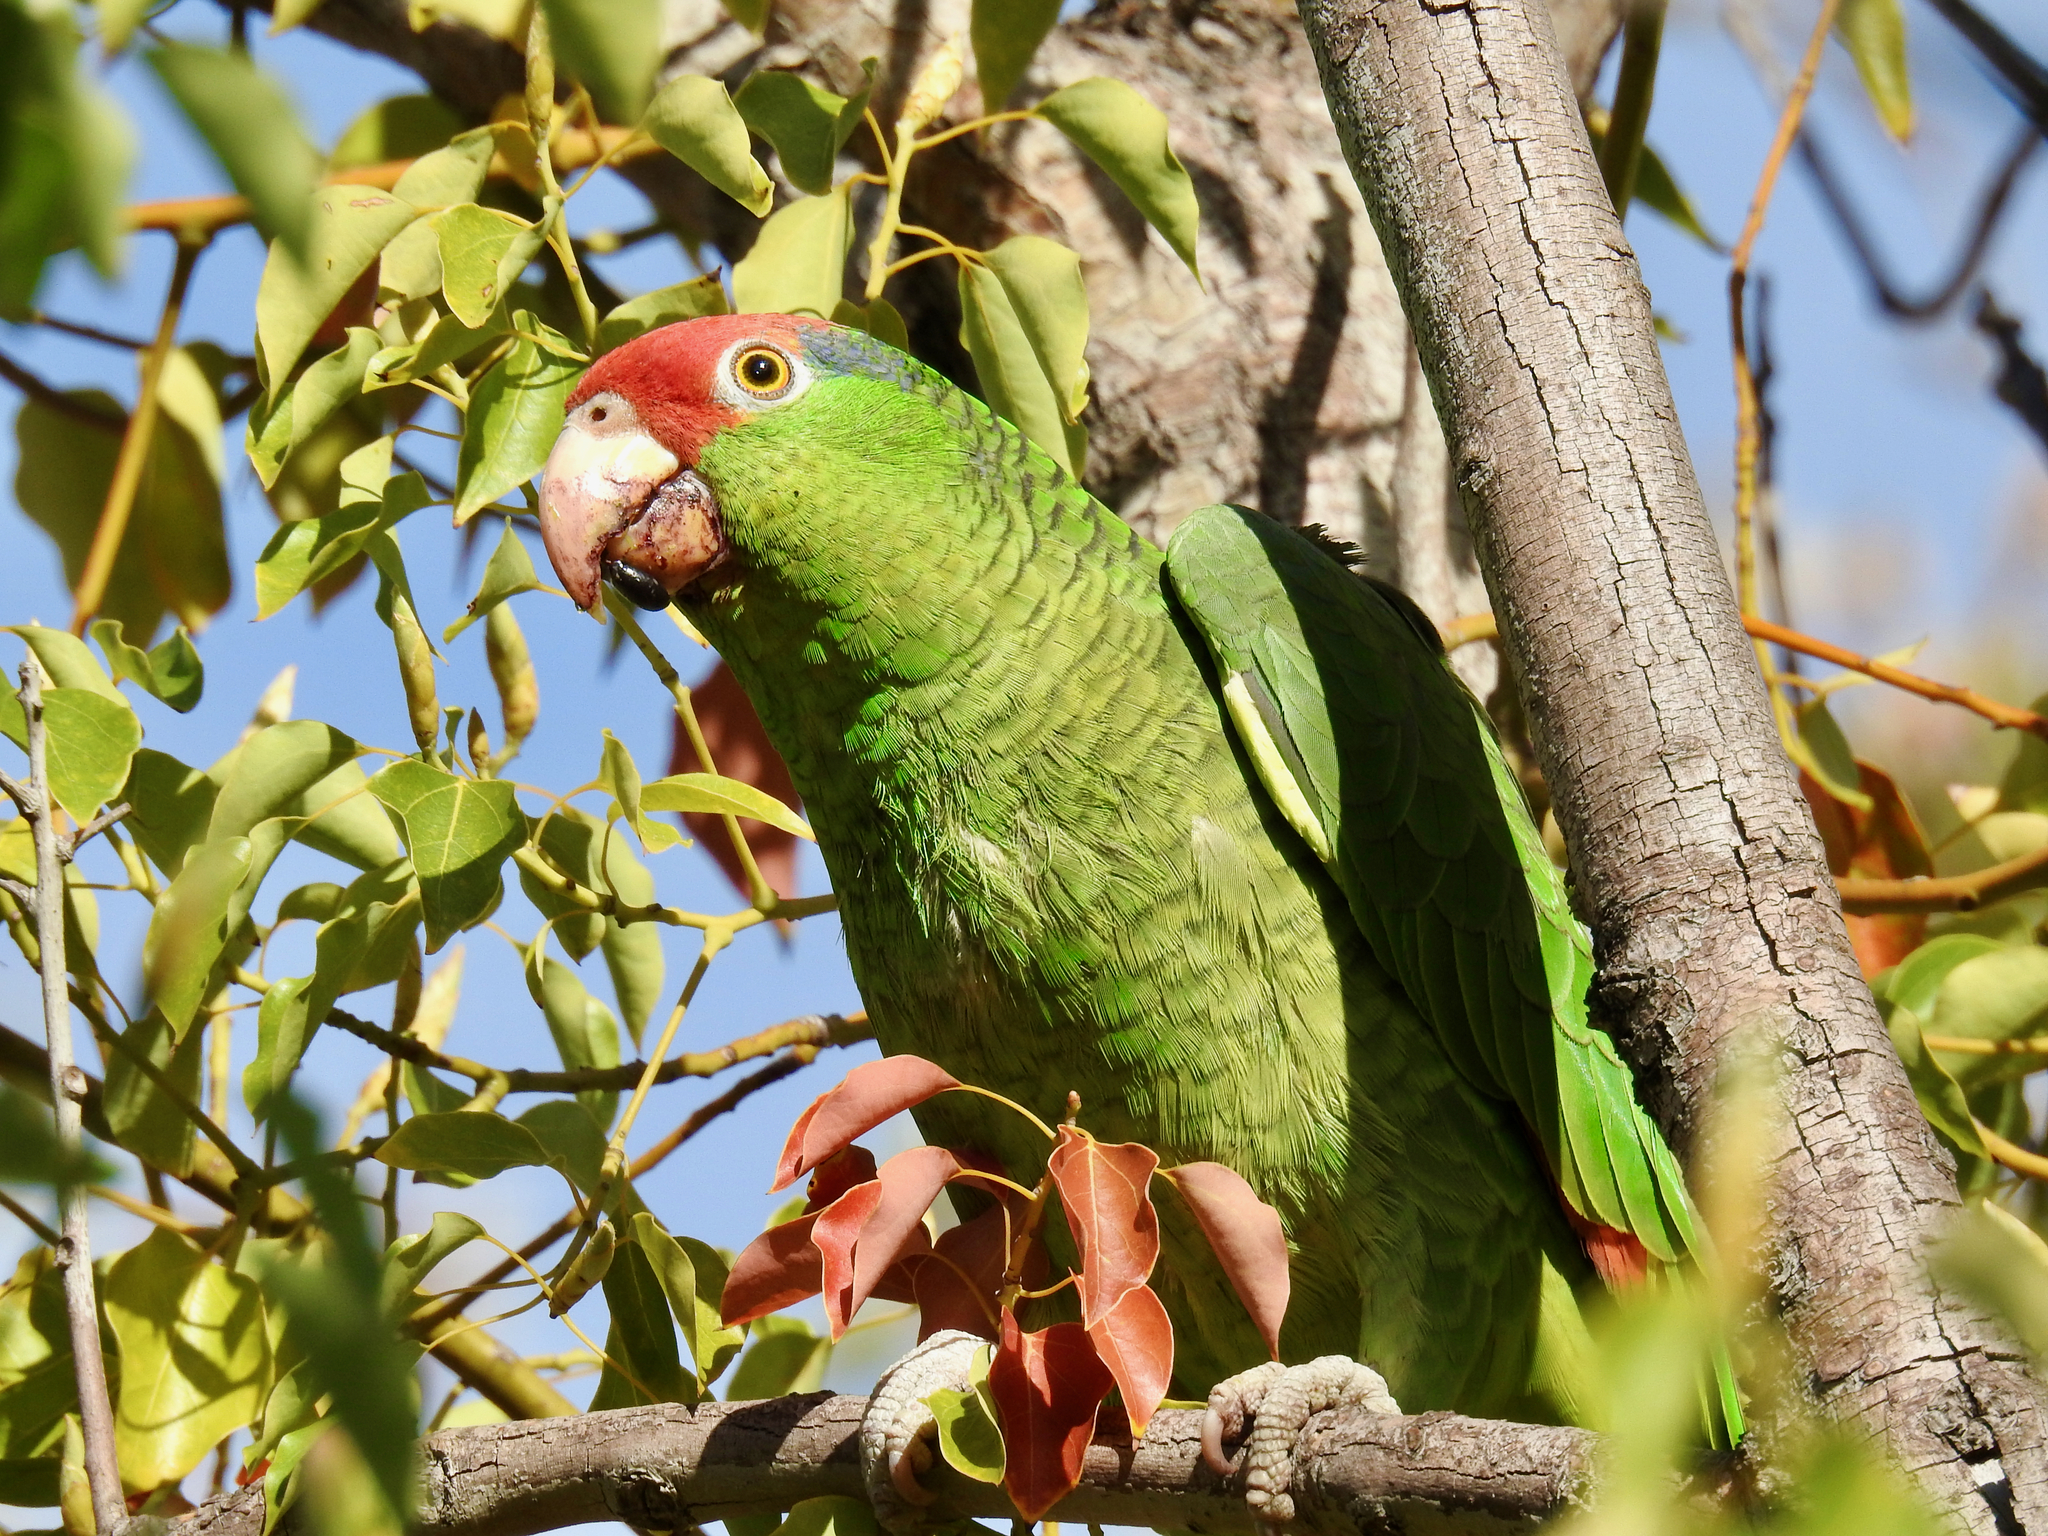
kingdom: Animalia
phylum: Chordata
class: Aves
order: Psittaciformes
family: Psittacidae
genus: Amazona
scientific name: Amazona viridigenalis
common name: Red-crowned amazon
